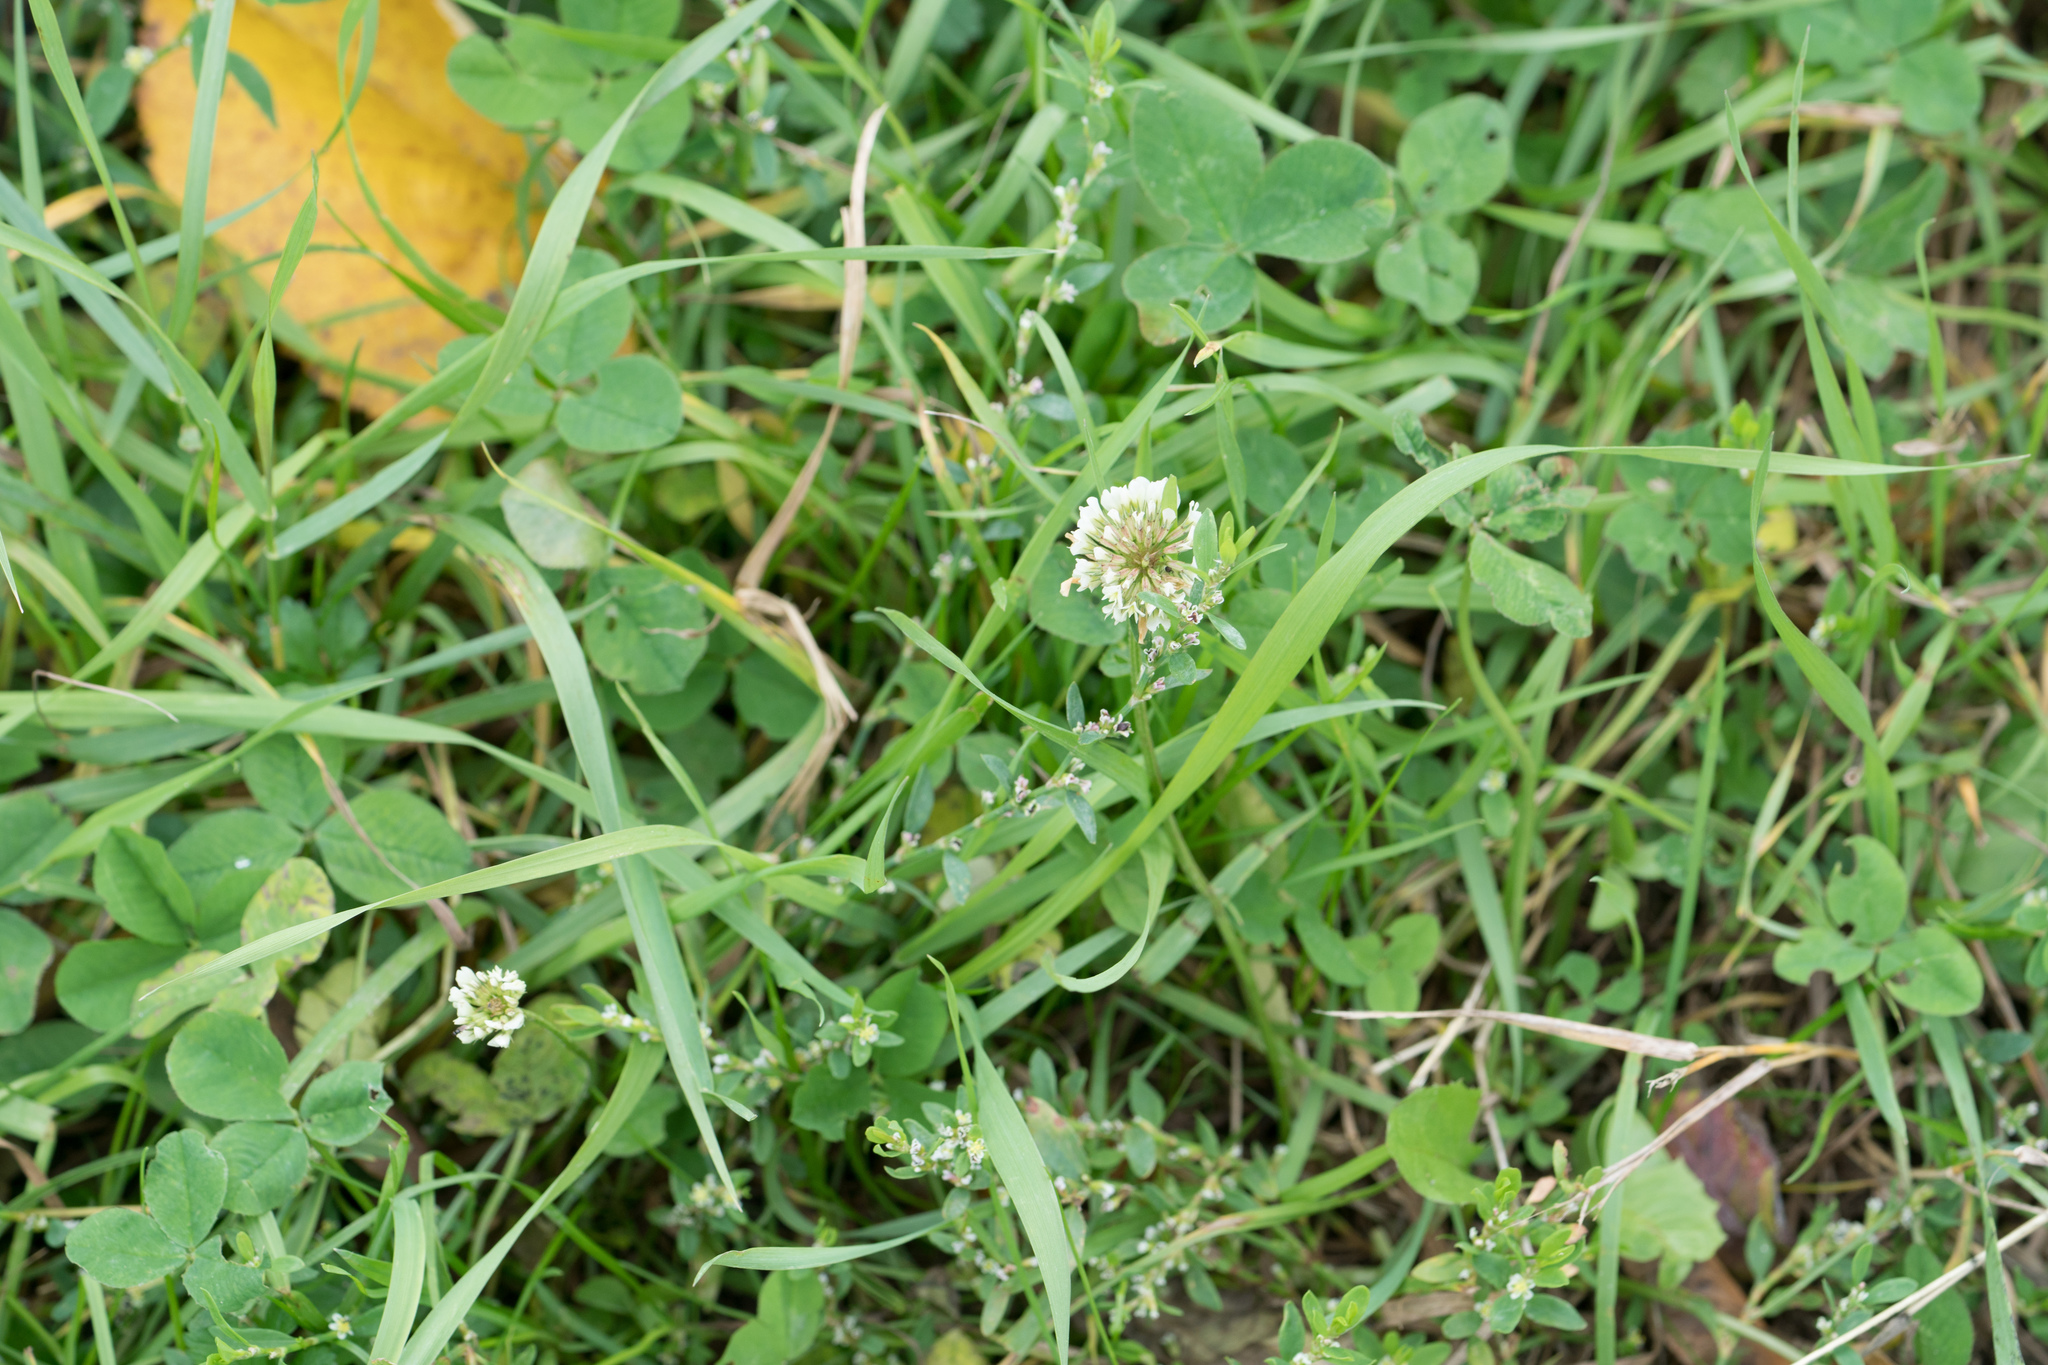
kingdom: Plantae
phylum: Tracheophyta
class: Magnoliopsida
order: Fabales
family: Fabaceae
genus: Trifolium
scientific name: Trifolium repens
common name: White clover
